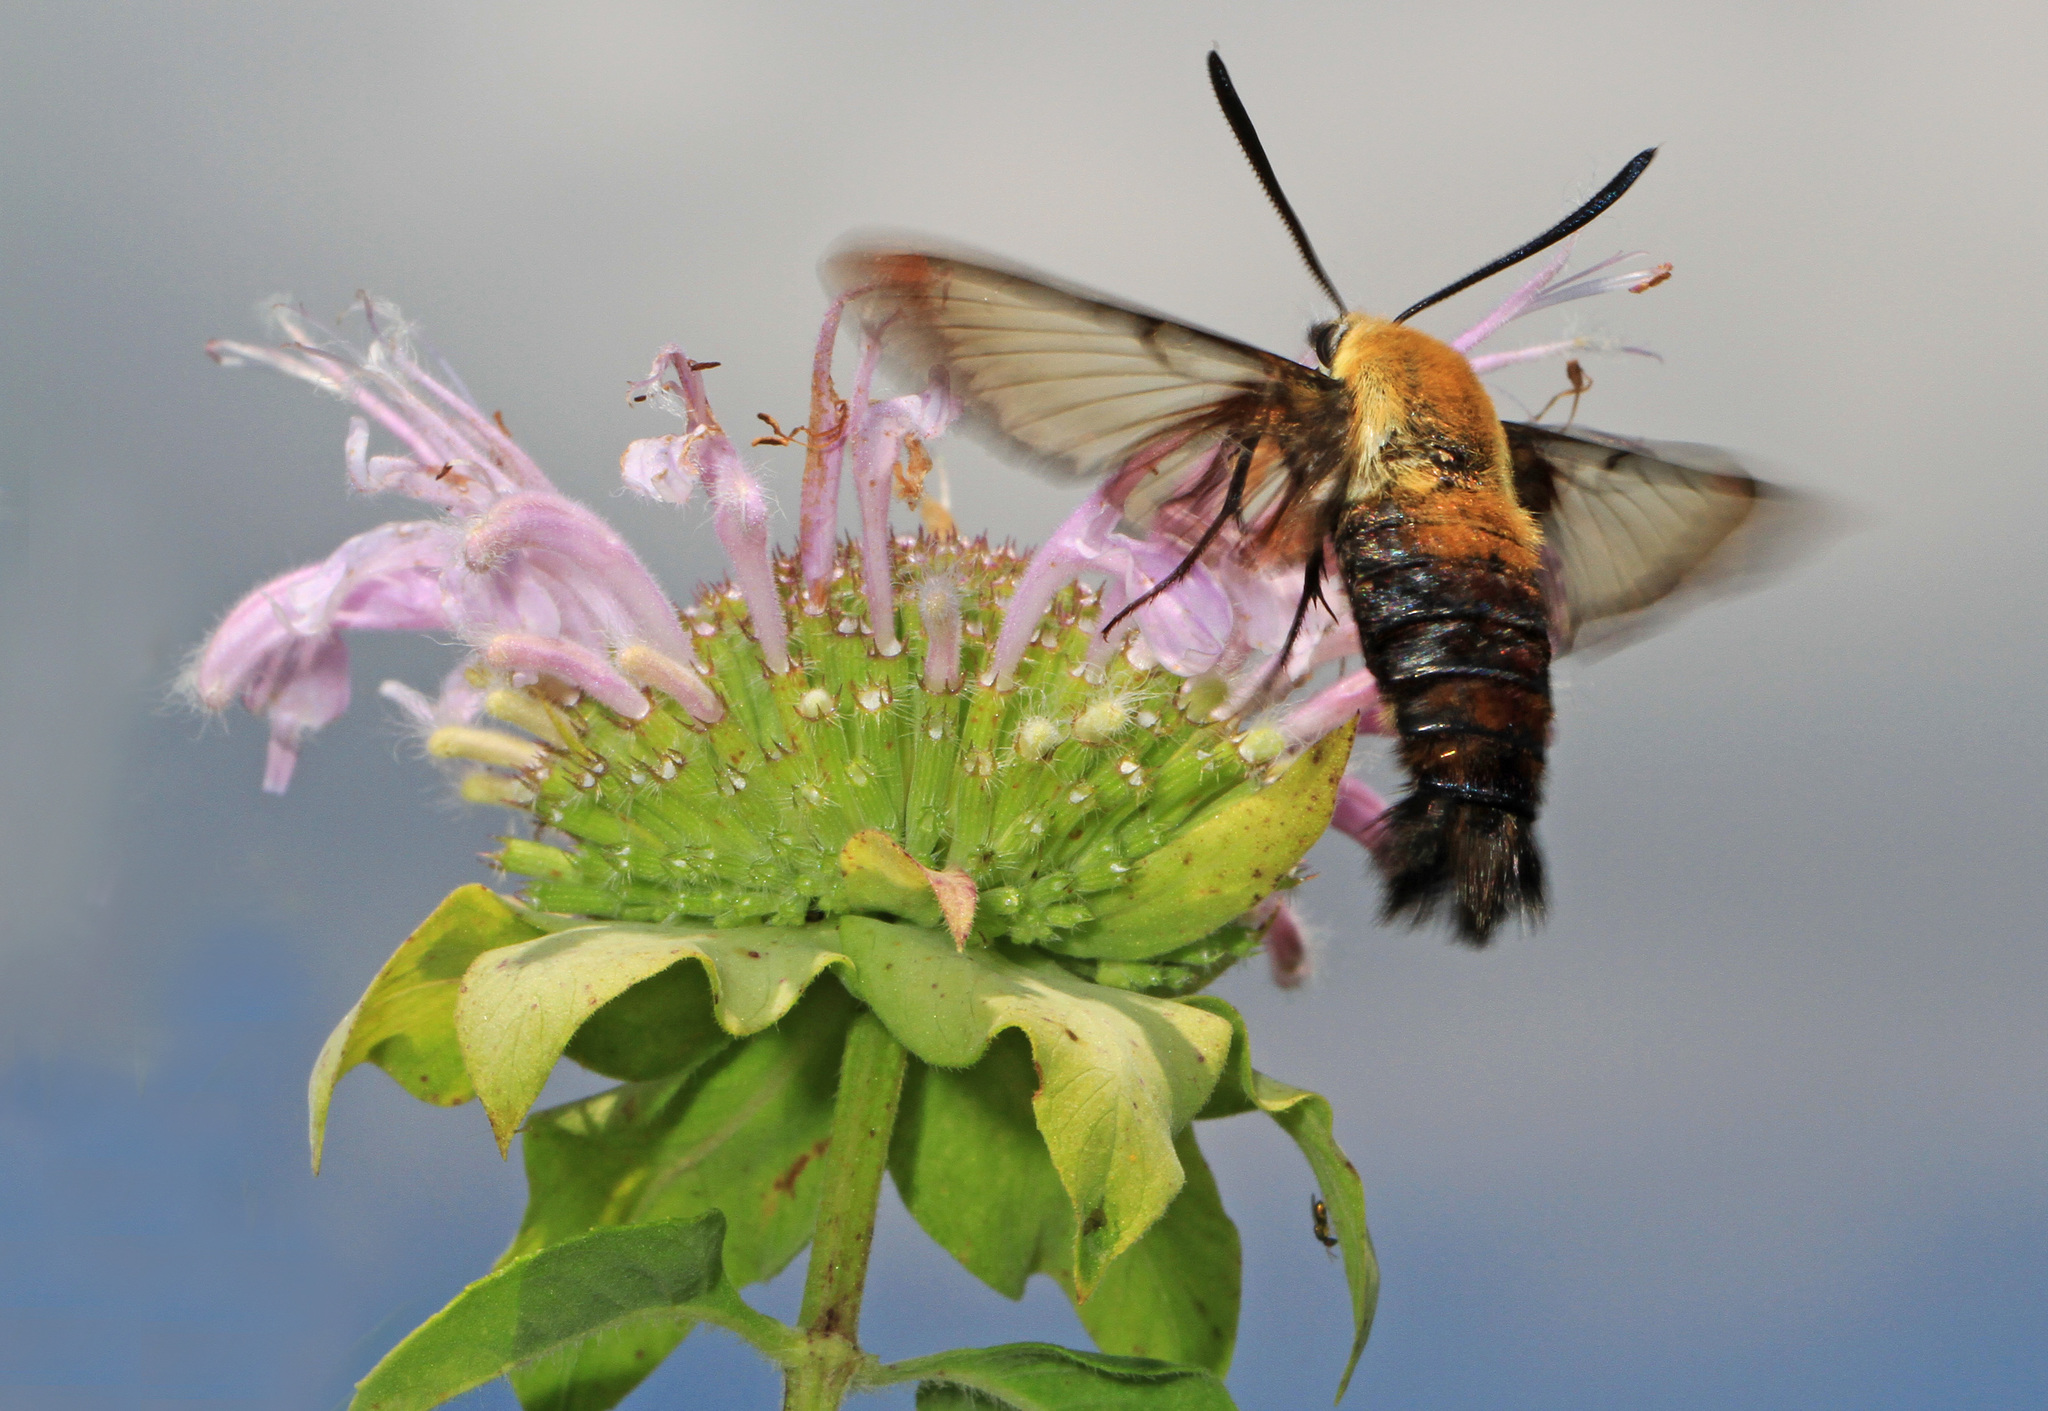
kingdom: Animalia
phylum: Arthropoda
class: Insecta
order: Lepidoptera
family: Sphingidae
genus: Hemaris
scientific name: Hemaris diffinis
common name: Bumblebee moth
